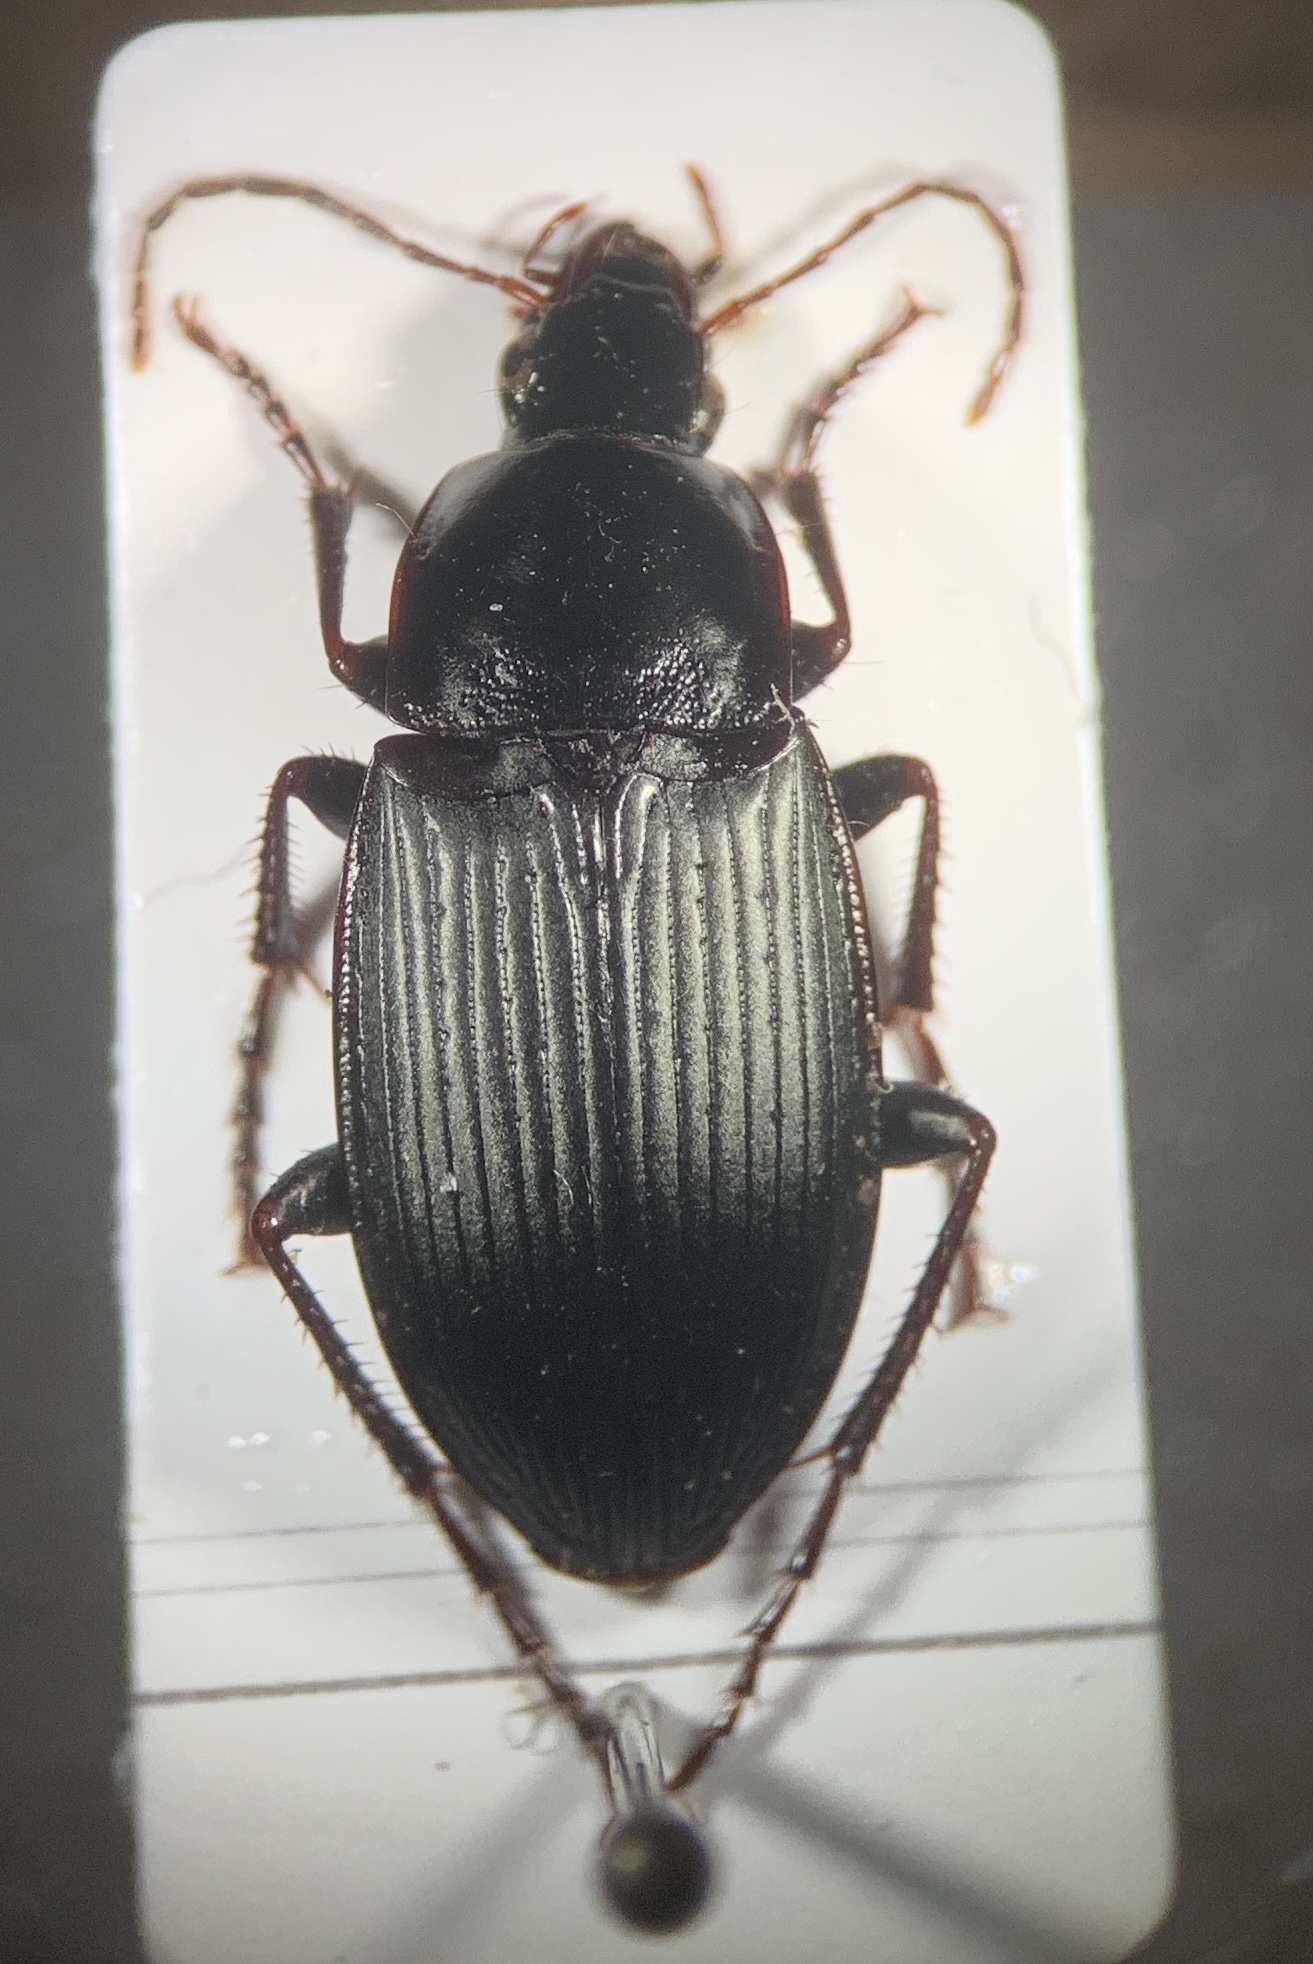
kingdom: Animalia
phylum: Arthropoda
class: Insecta
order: Coleoptera
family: Carabidae
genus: Calathus
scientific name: Calathus fuscipes
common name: Dark-footed harp ground beetle
